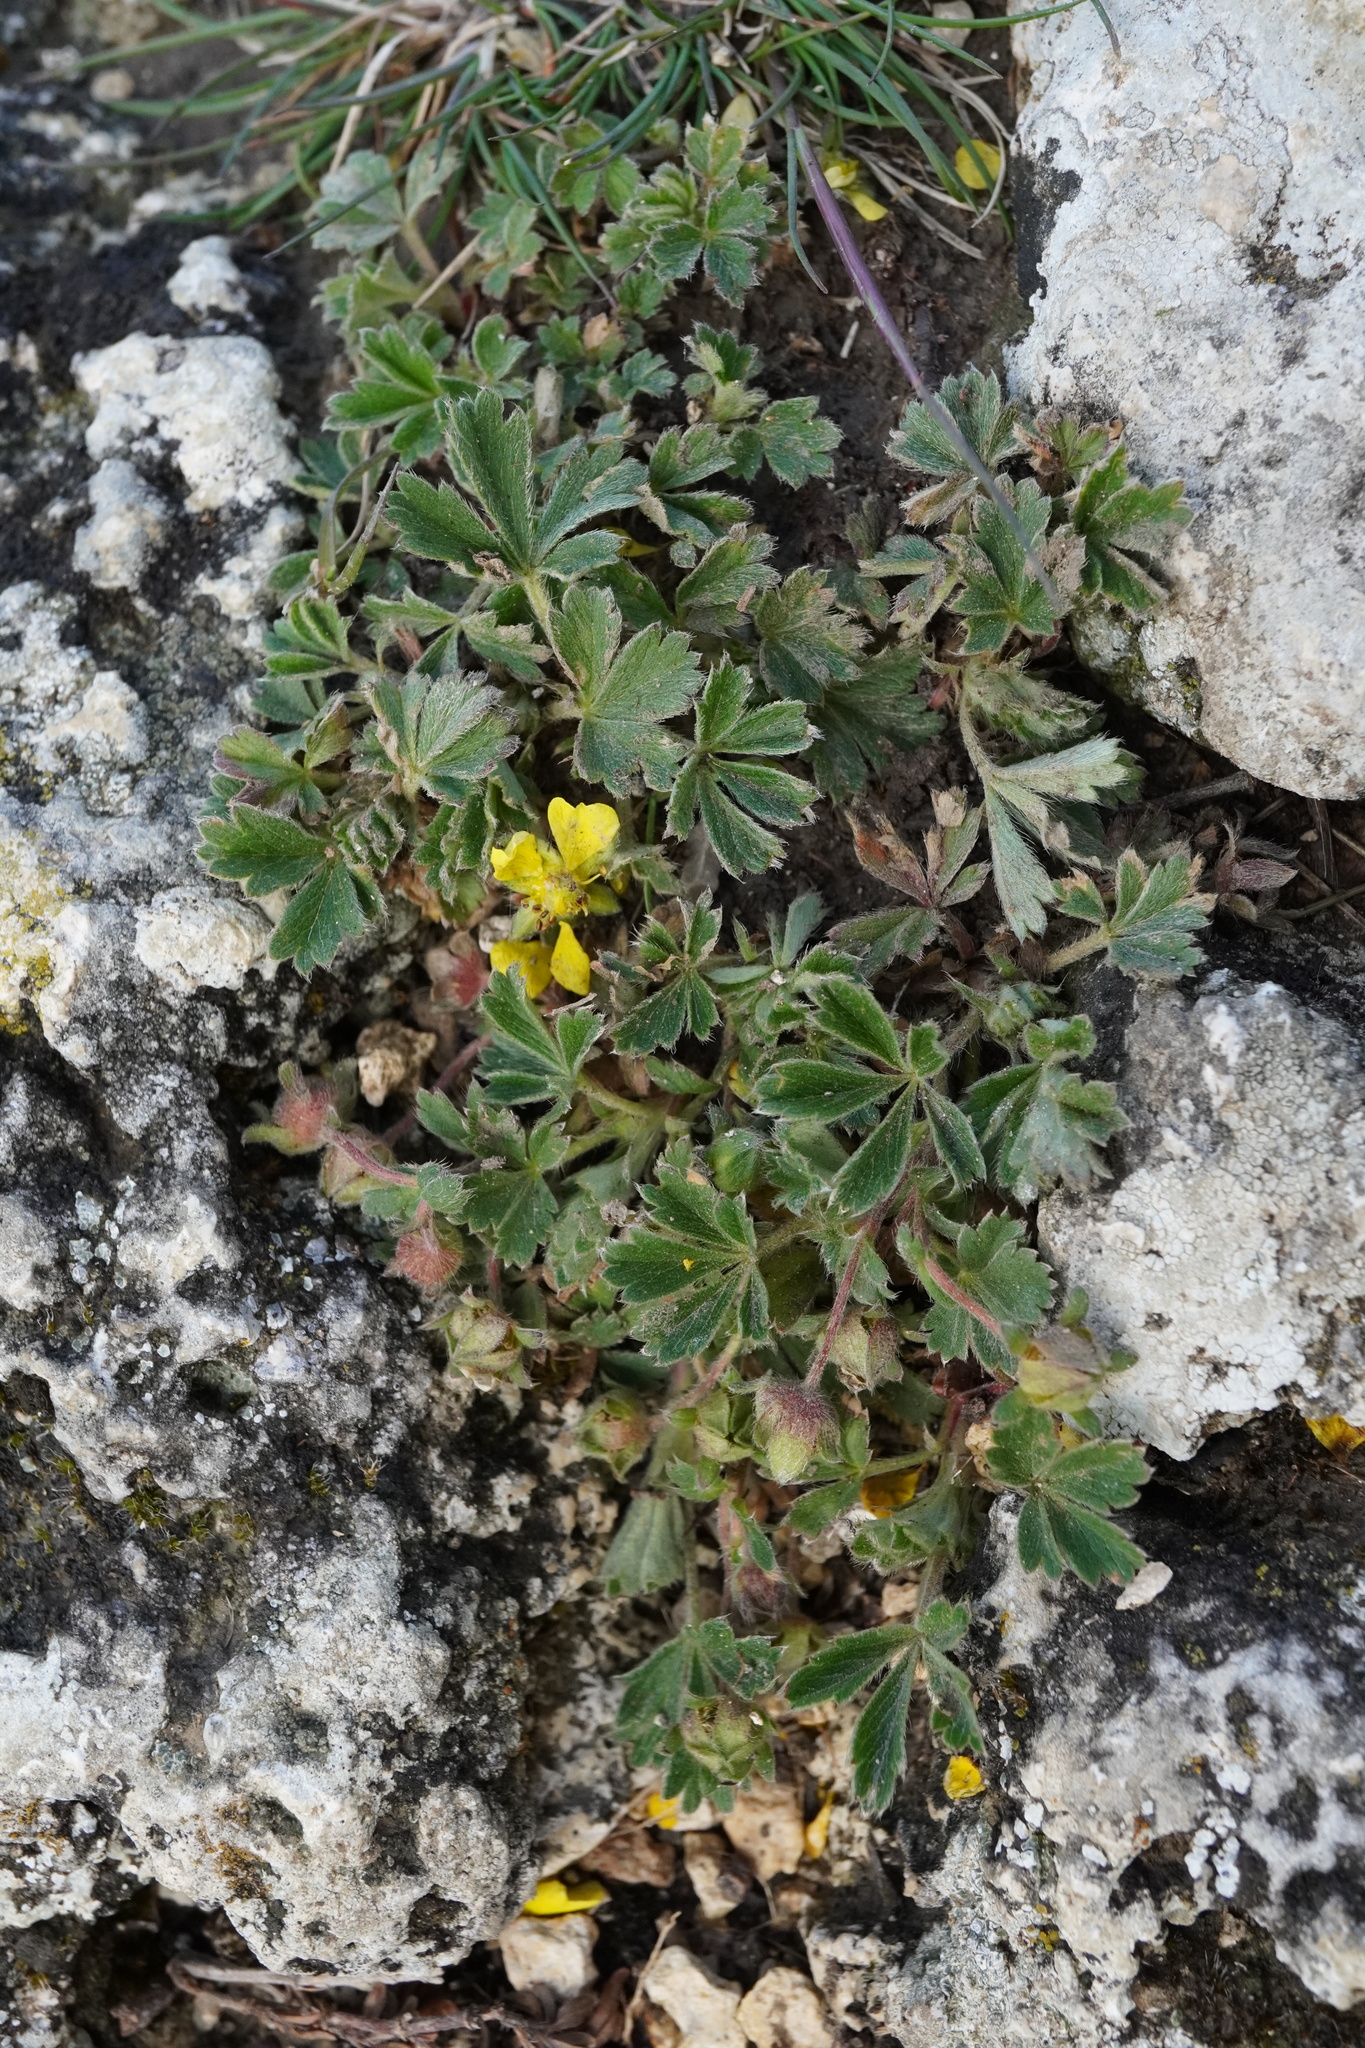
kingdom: Plantae
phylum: Tracheophyta
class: Magnoliopsida
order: Rosales
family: Rosaceae
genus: Potentilla
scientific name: Potentilla incana
